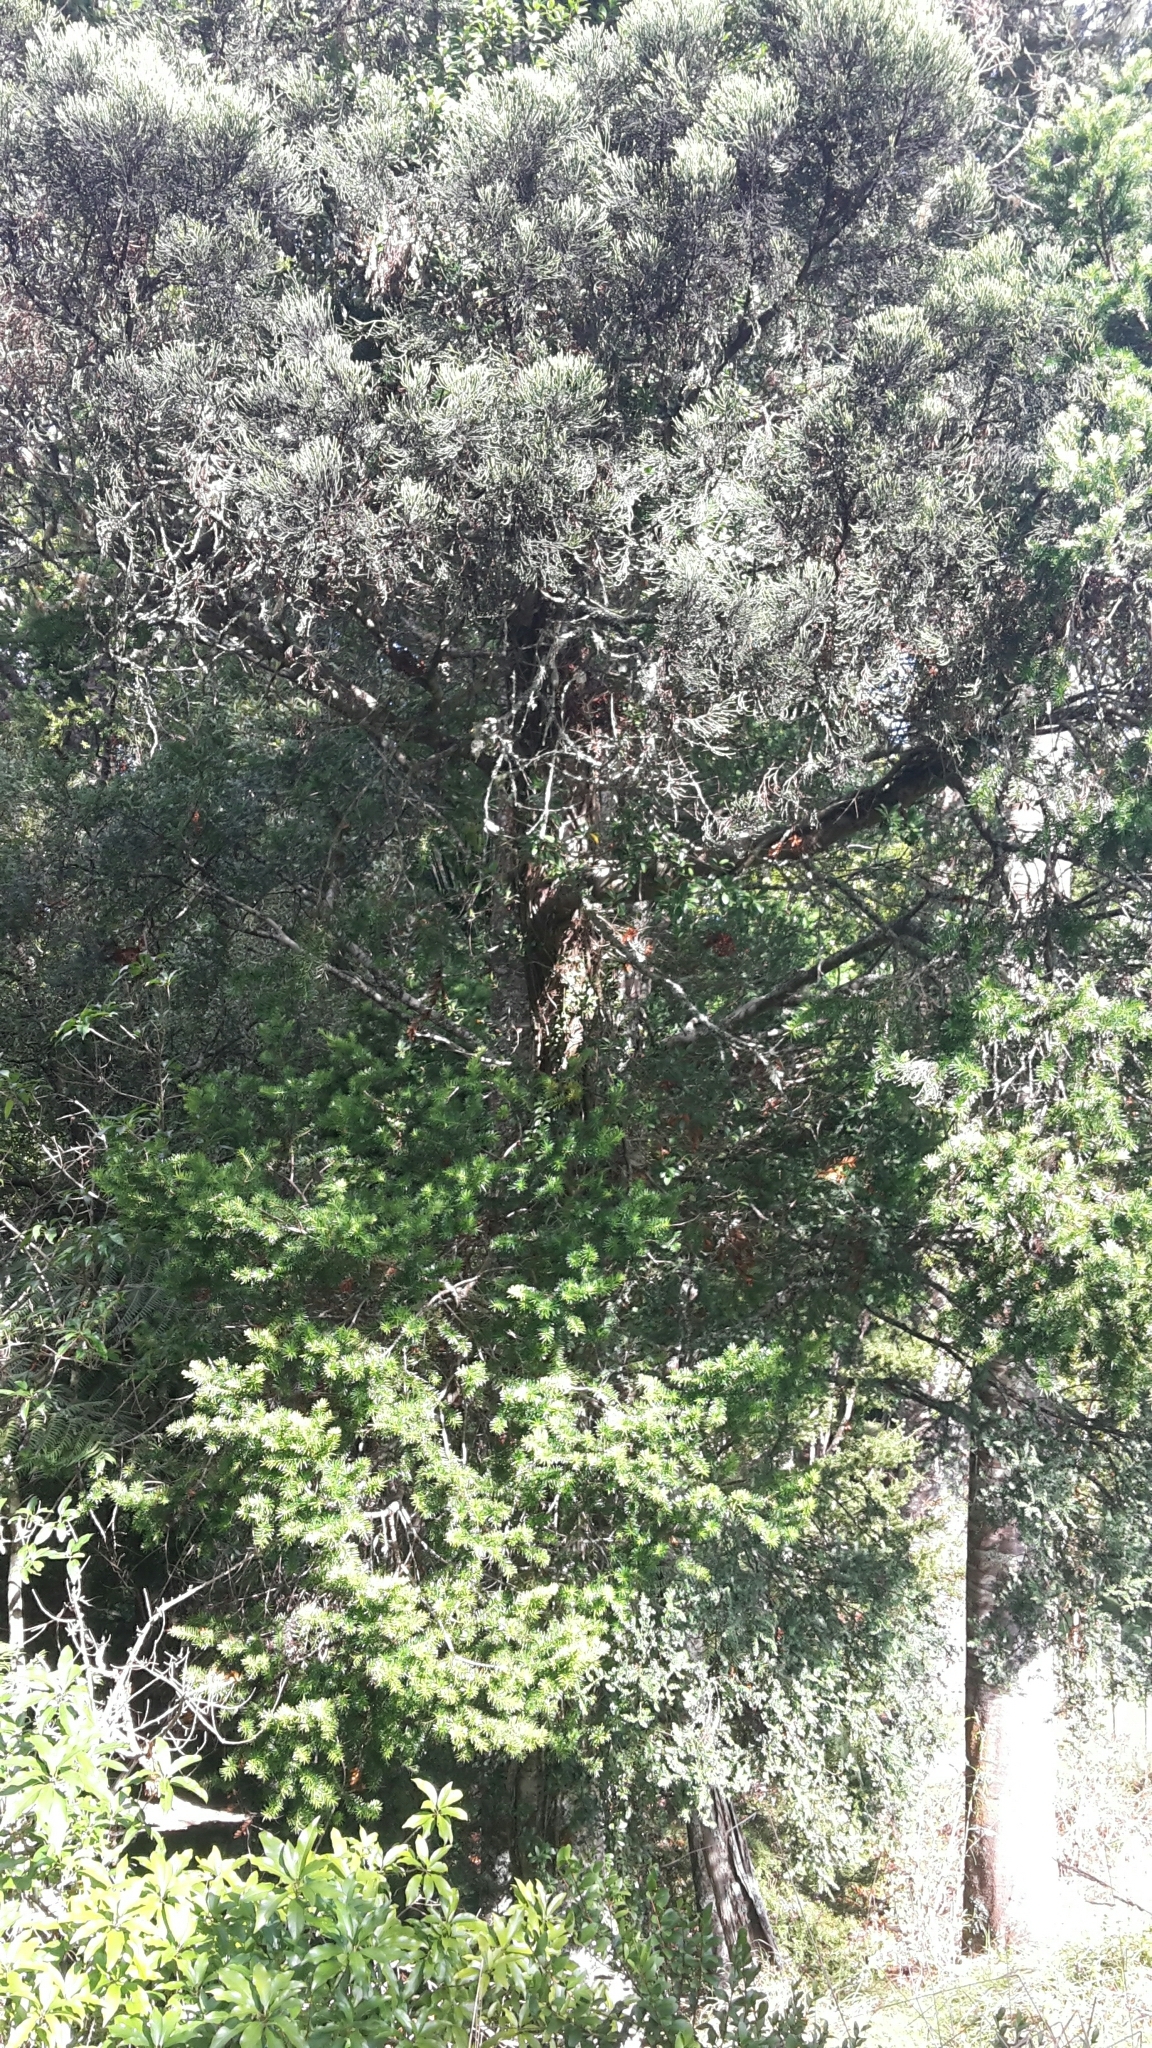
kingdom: Plantae
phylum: Tracheophyta
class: Pinopsida
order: Pinales
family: Podocarpaceae
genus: Halocarpus
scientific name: Halocarpus kirkii
